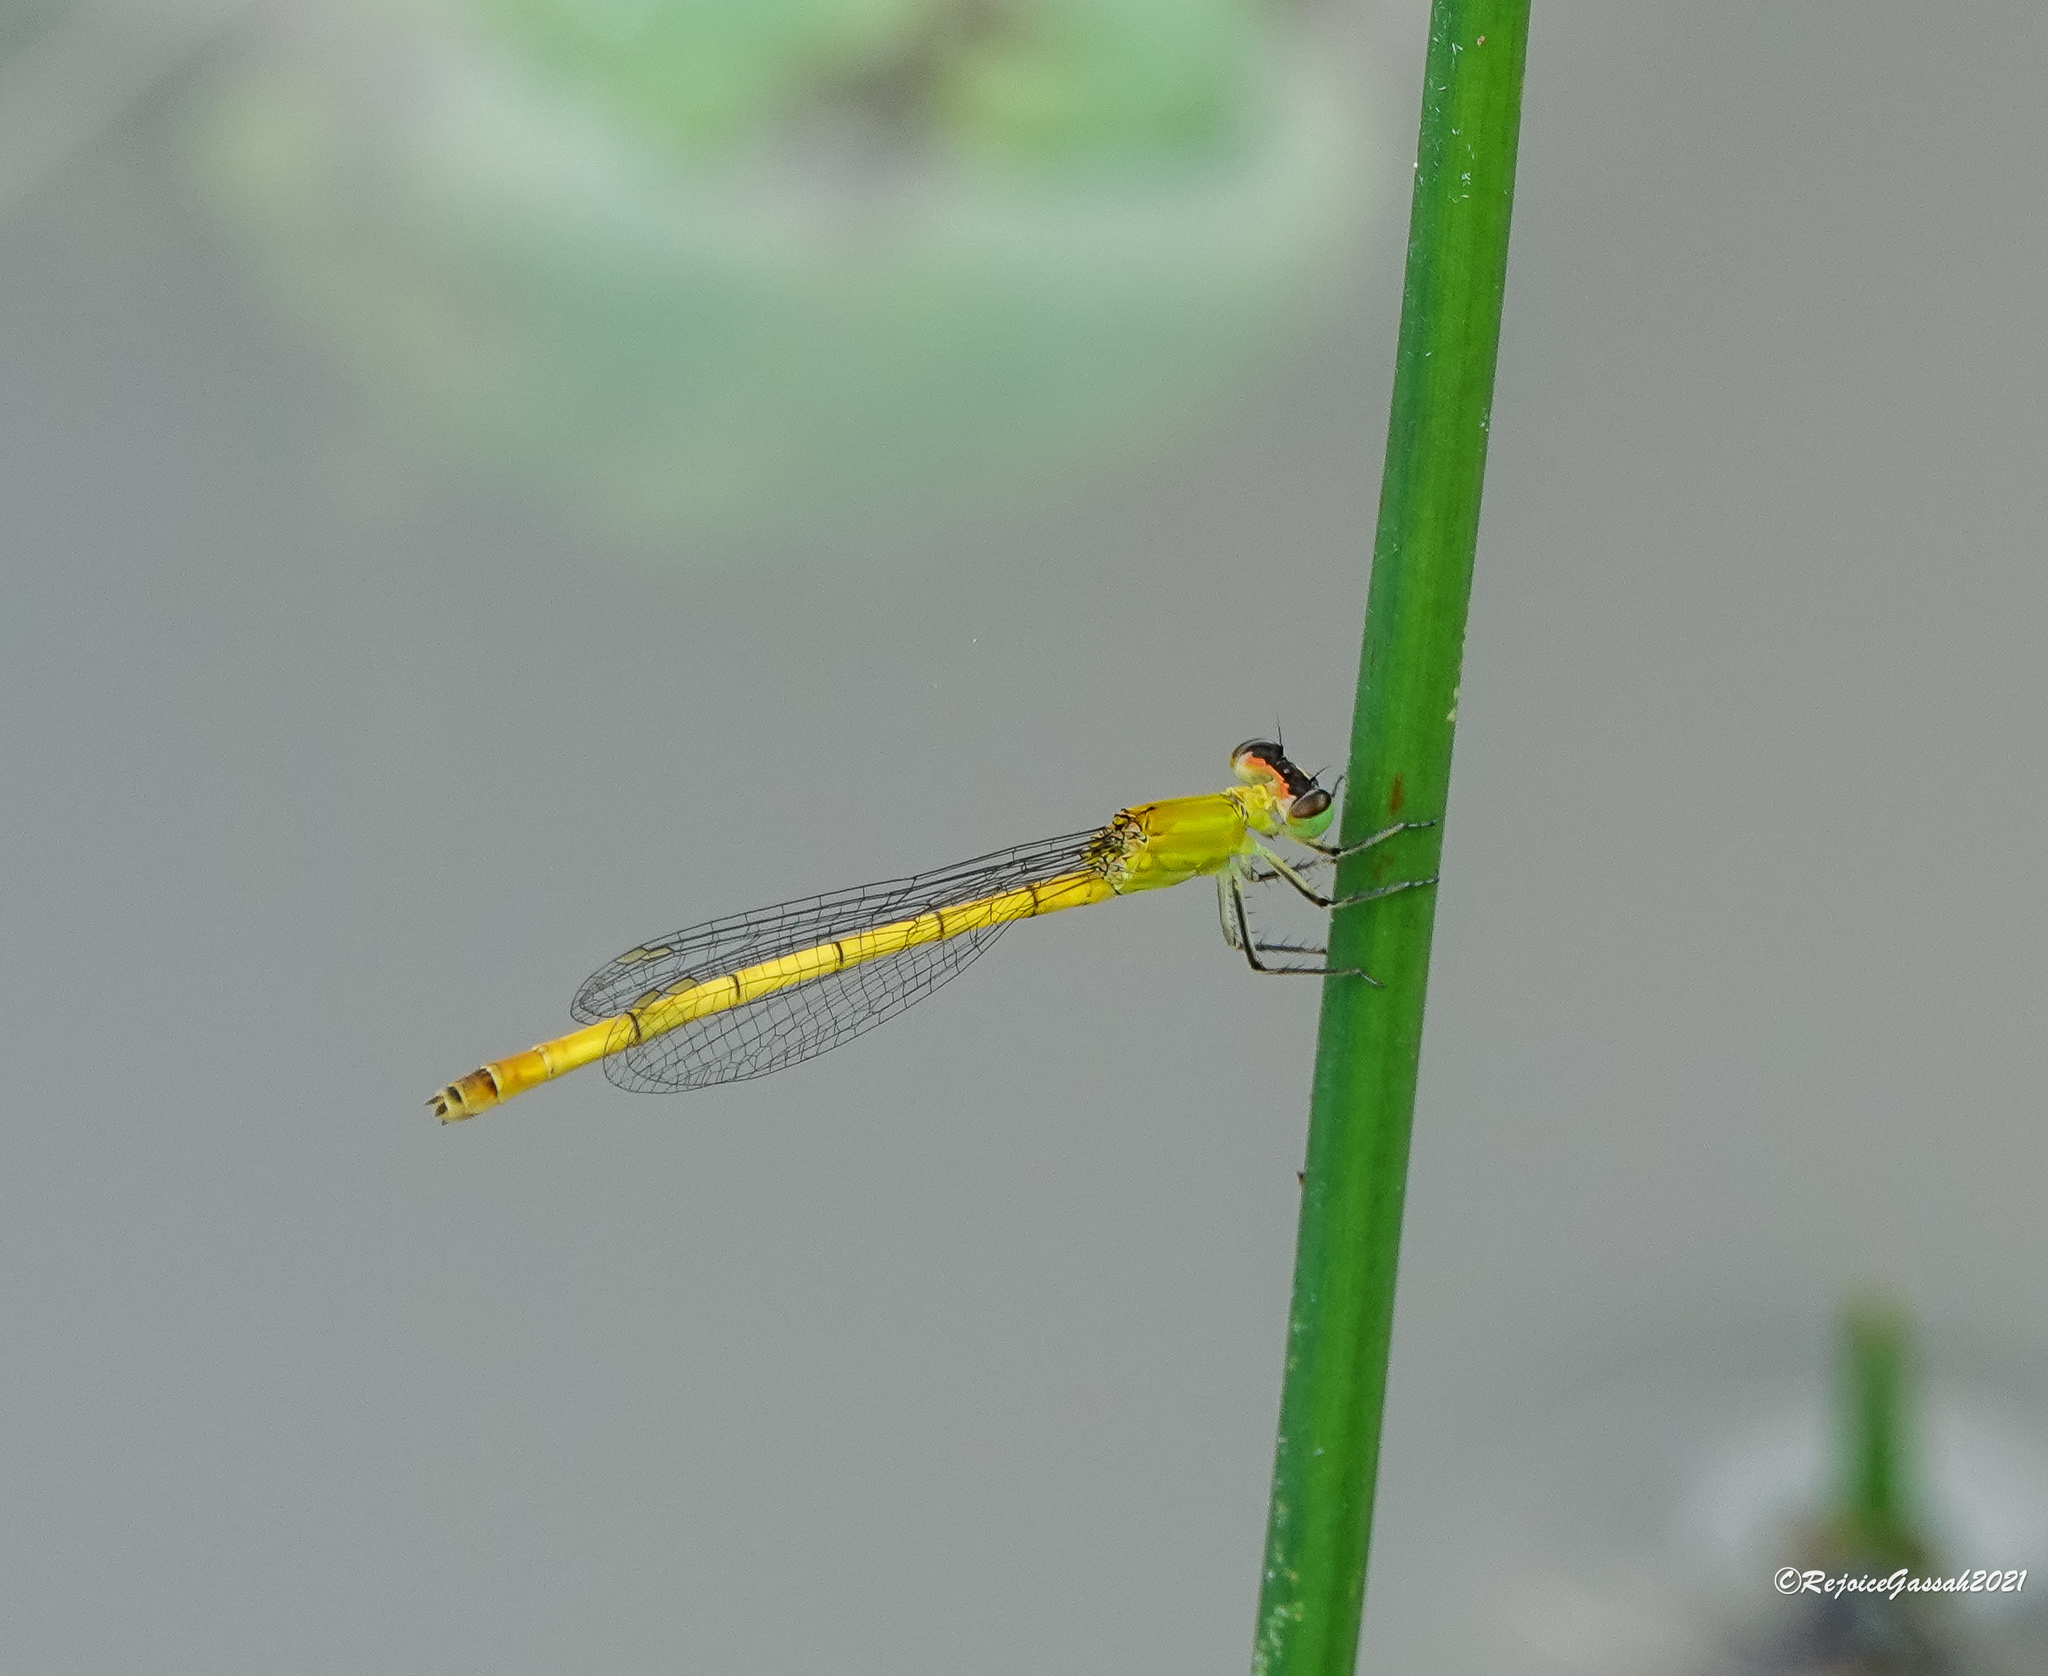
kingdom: Animalia
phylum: Arthropoda
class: Insecta
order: Odonata
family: Coenagrionidae
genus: Agriocnemis
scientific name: Agriocnemis kalinga
